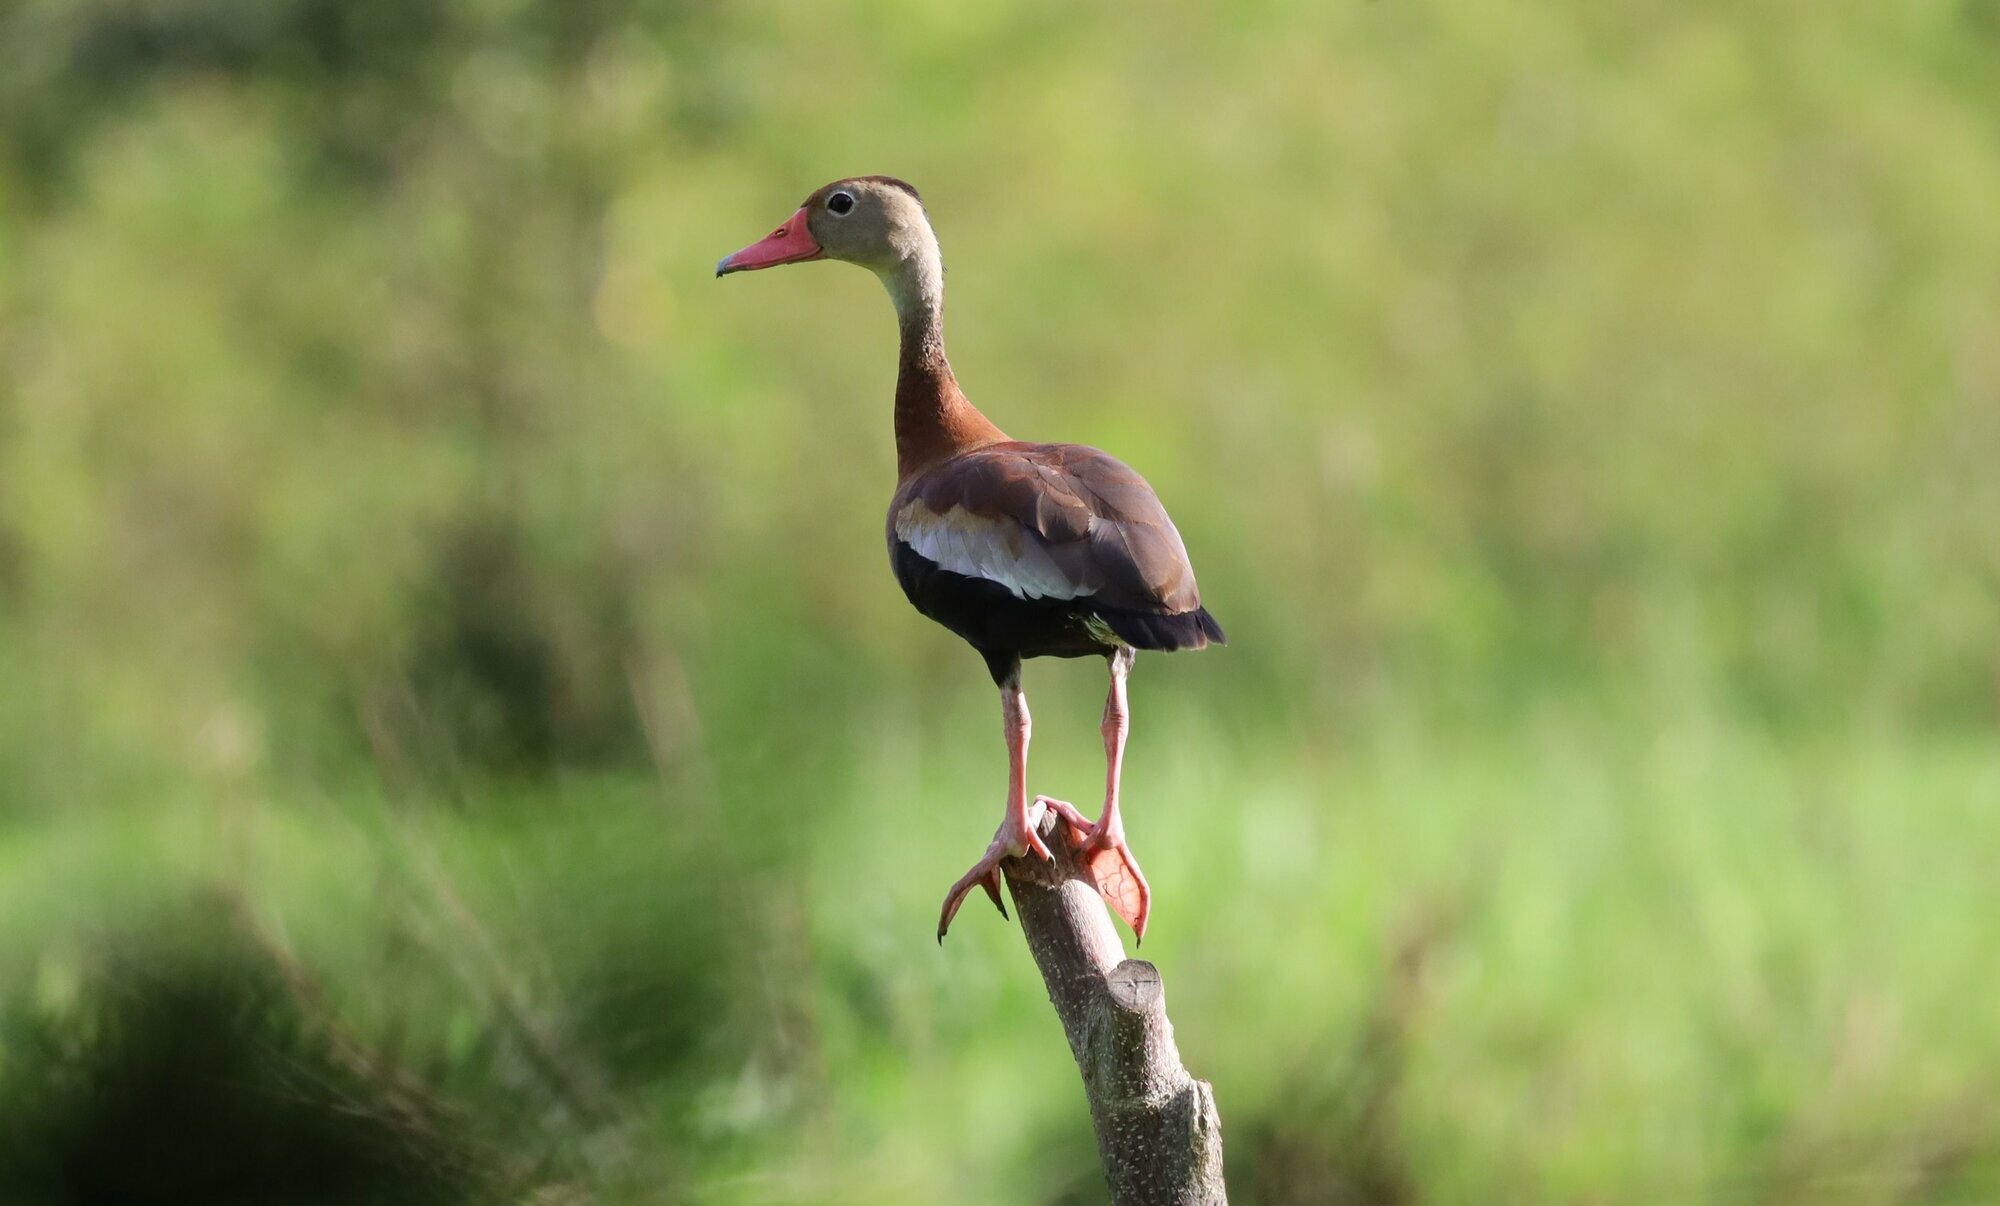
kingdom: Animalia
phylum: Chordata
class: Aves
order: Anseriformes
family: Anatidae
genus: Dendrocygna
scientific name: Dendrocygna autumnalis
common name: Black-bellied whistling duck
